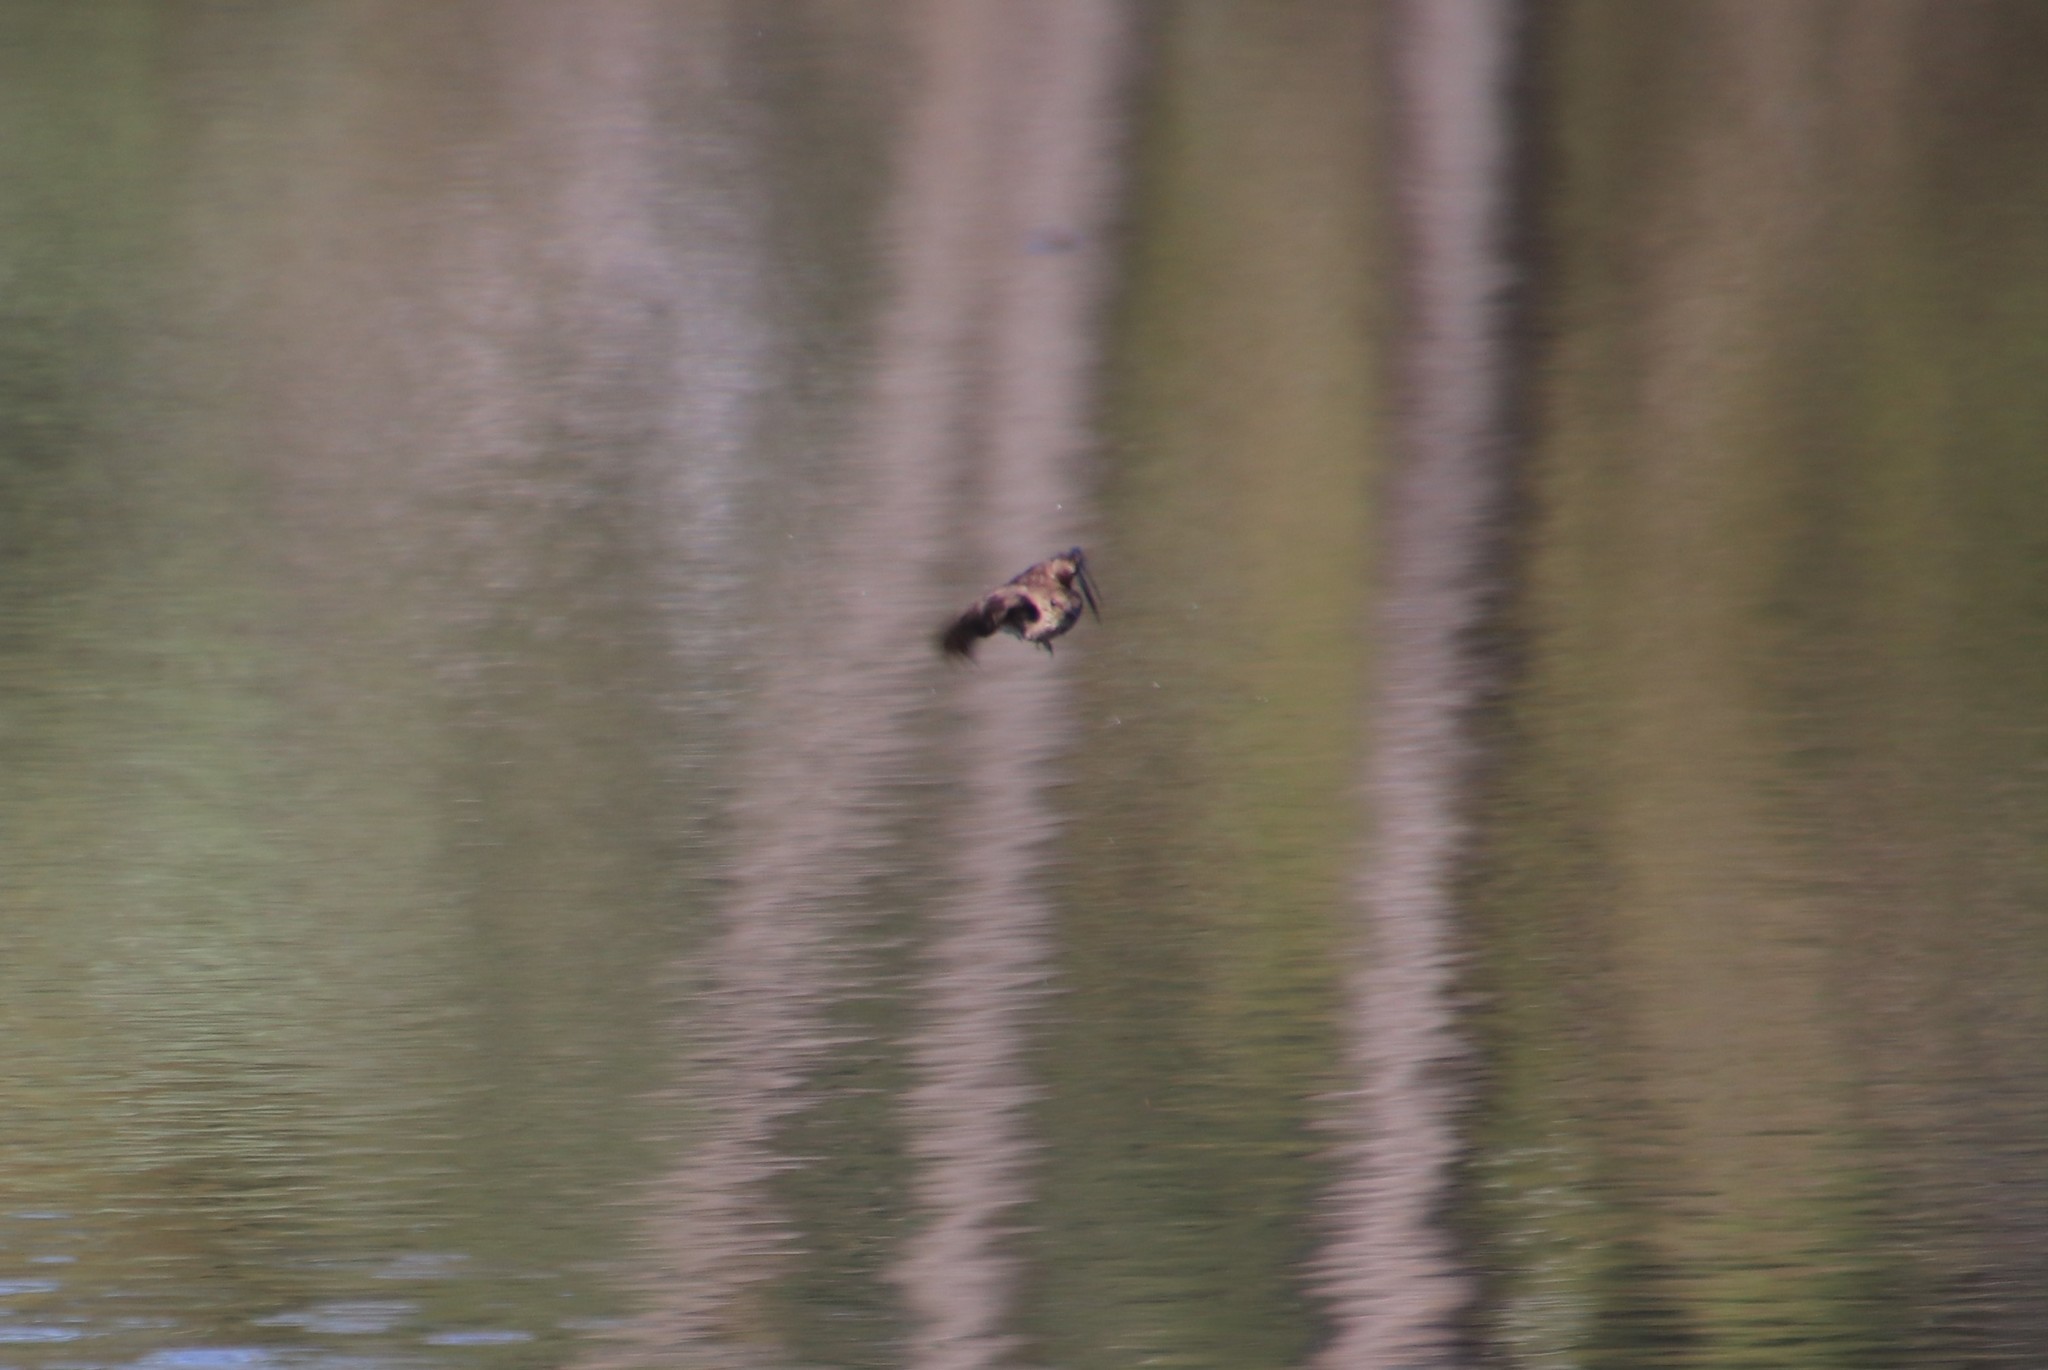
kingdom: Animalia
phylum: Chordata
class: Aves
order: Passeriformes
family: Hirundinidae
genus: Stelgidopteryx
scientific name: Stelgidopteryx serripennis
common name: Northern rough-winged swallow
